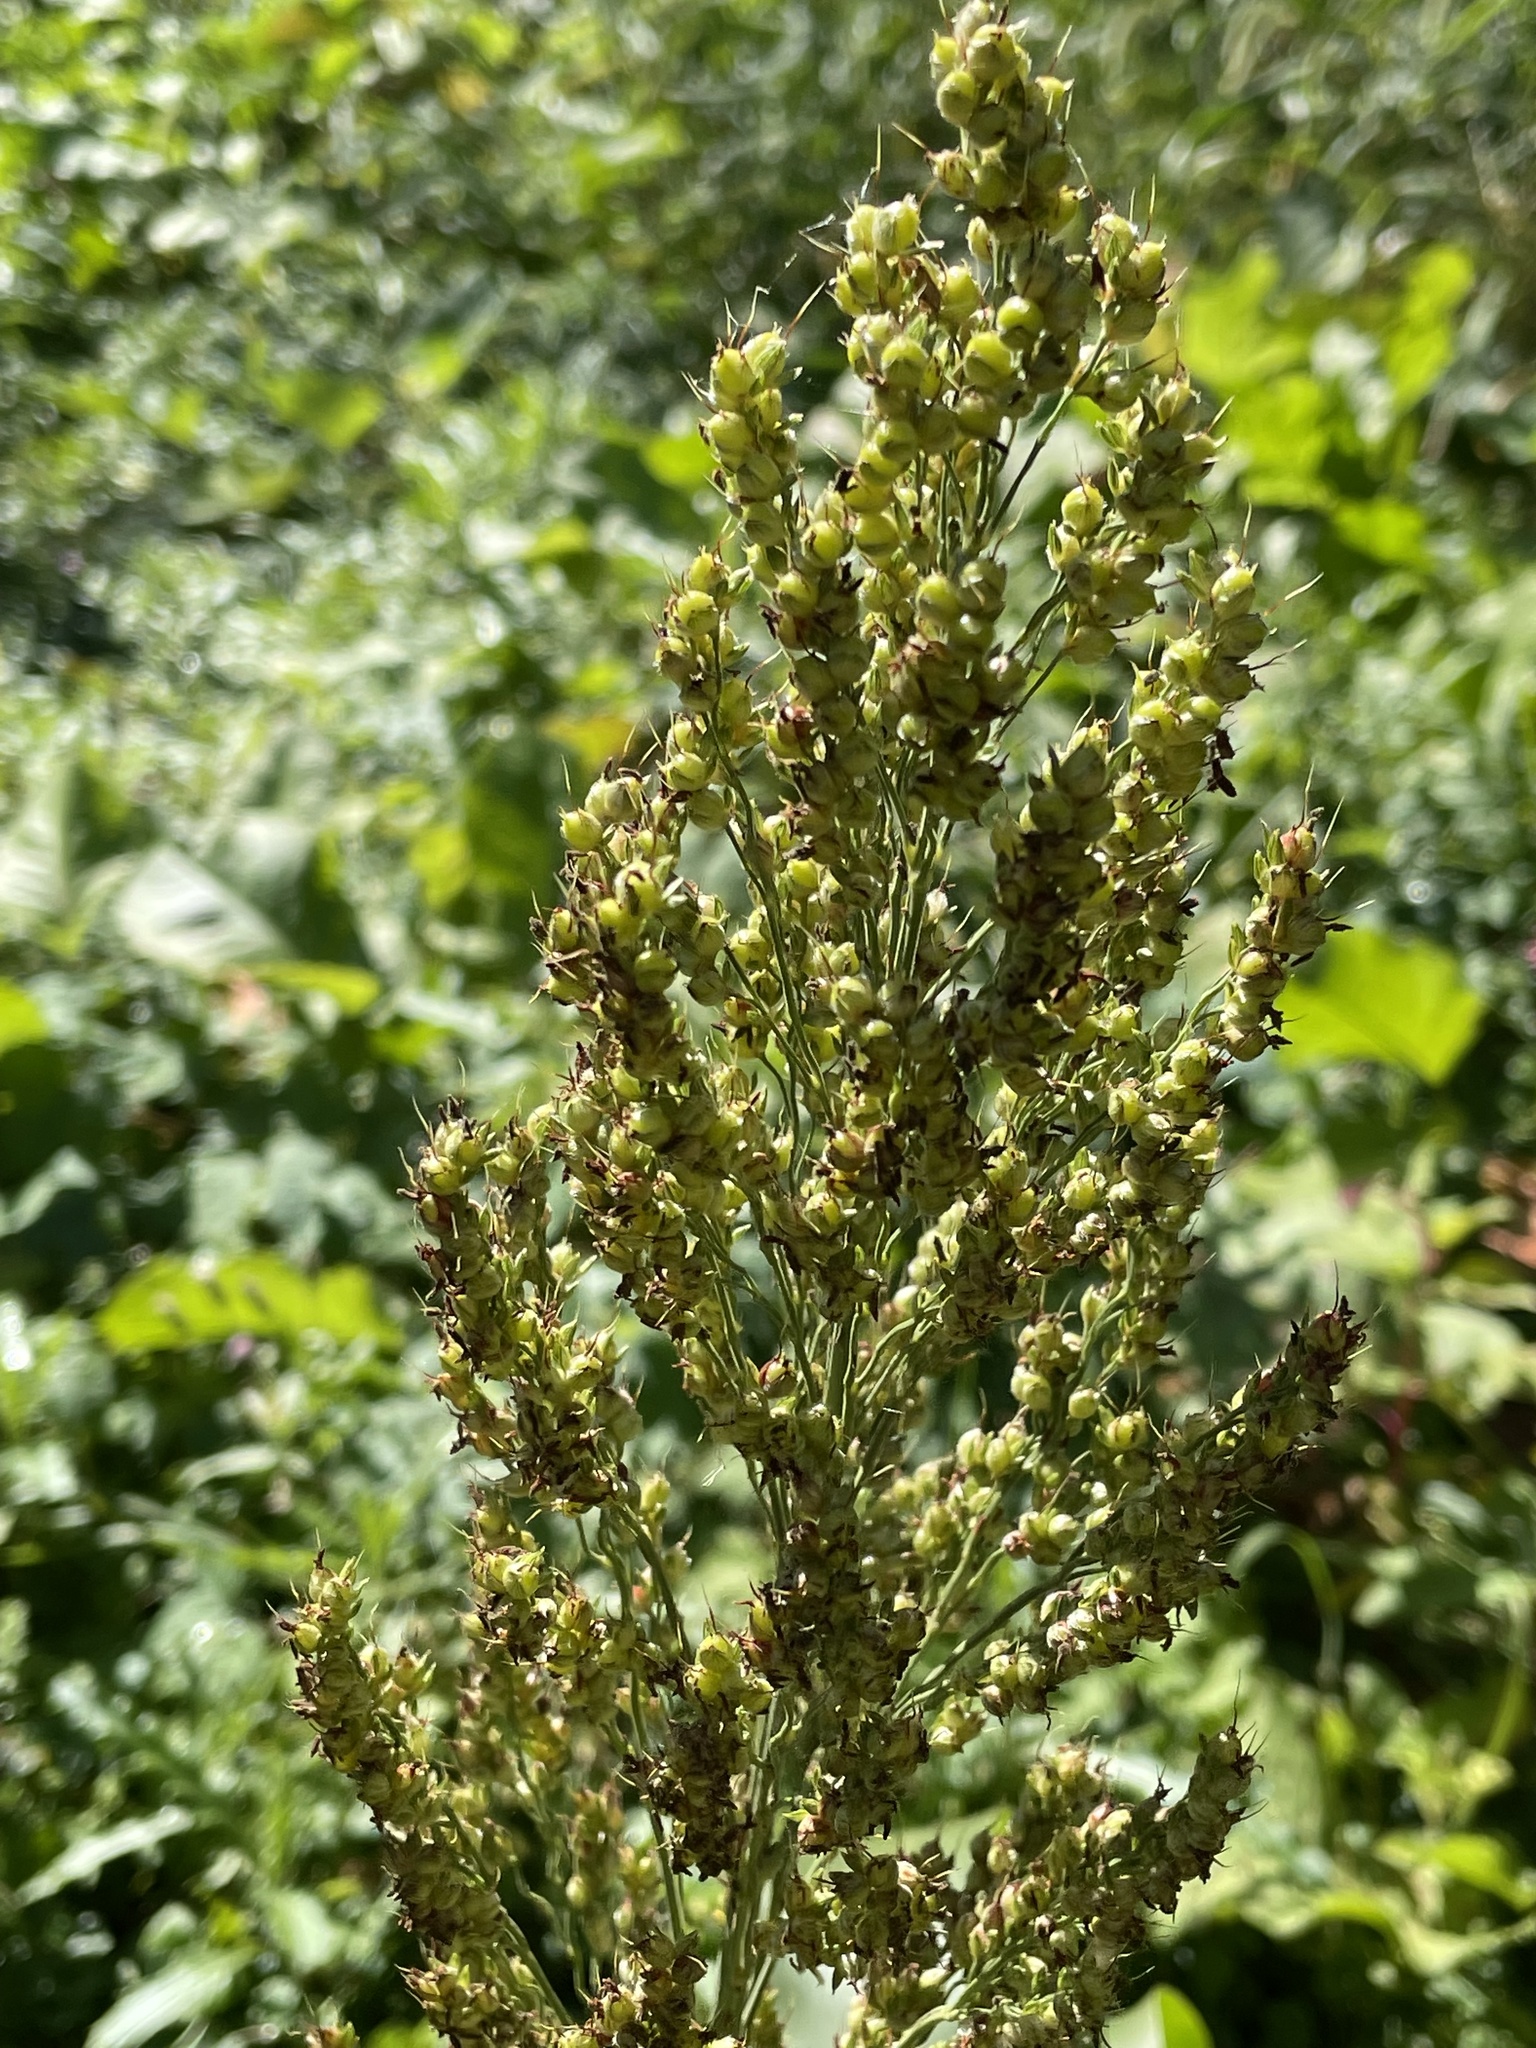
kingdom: Plantae
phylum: Tracheophyta
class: Liliopsida
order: Poales
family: Poaceae
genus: Sorghum
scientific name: Sorghum bicolor
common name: Sorghum
